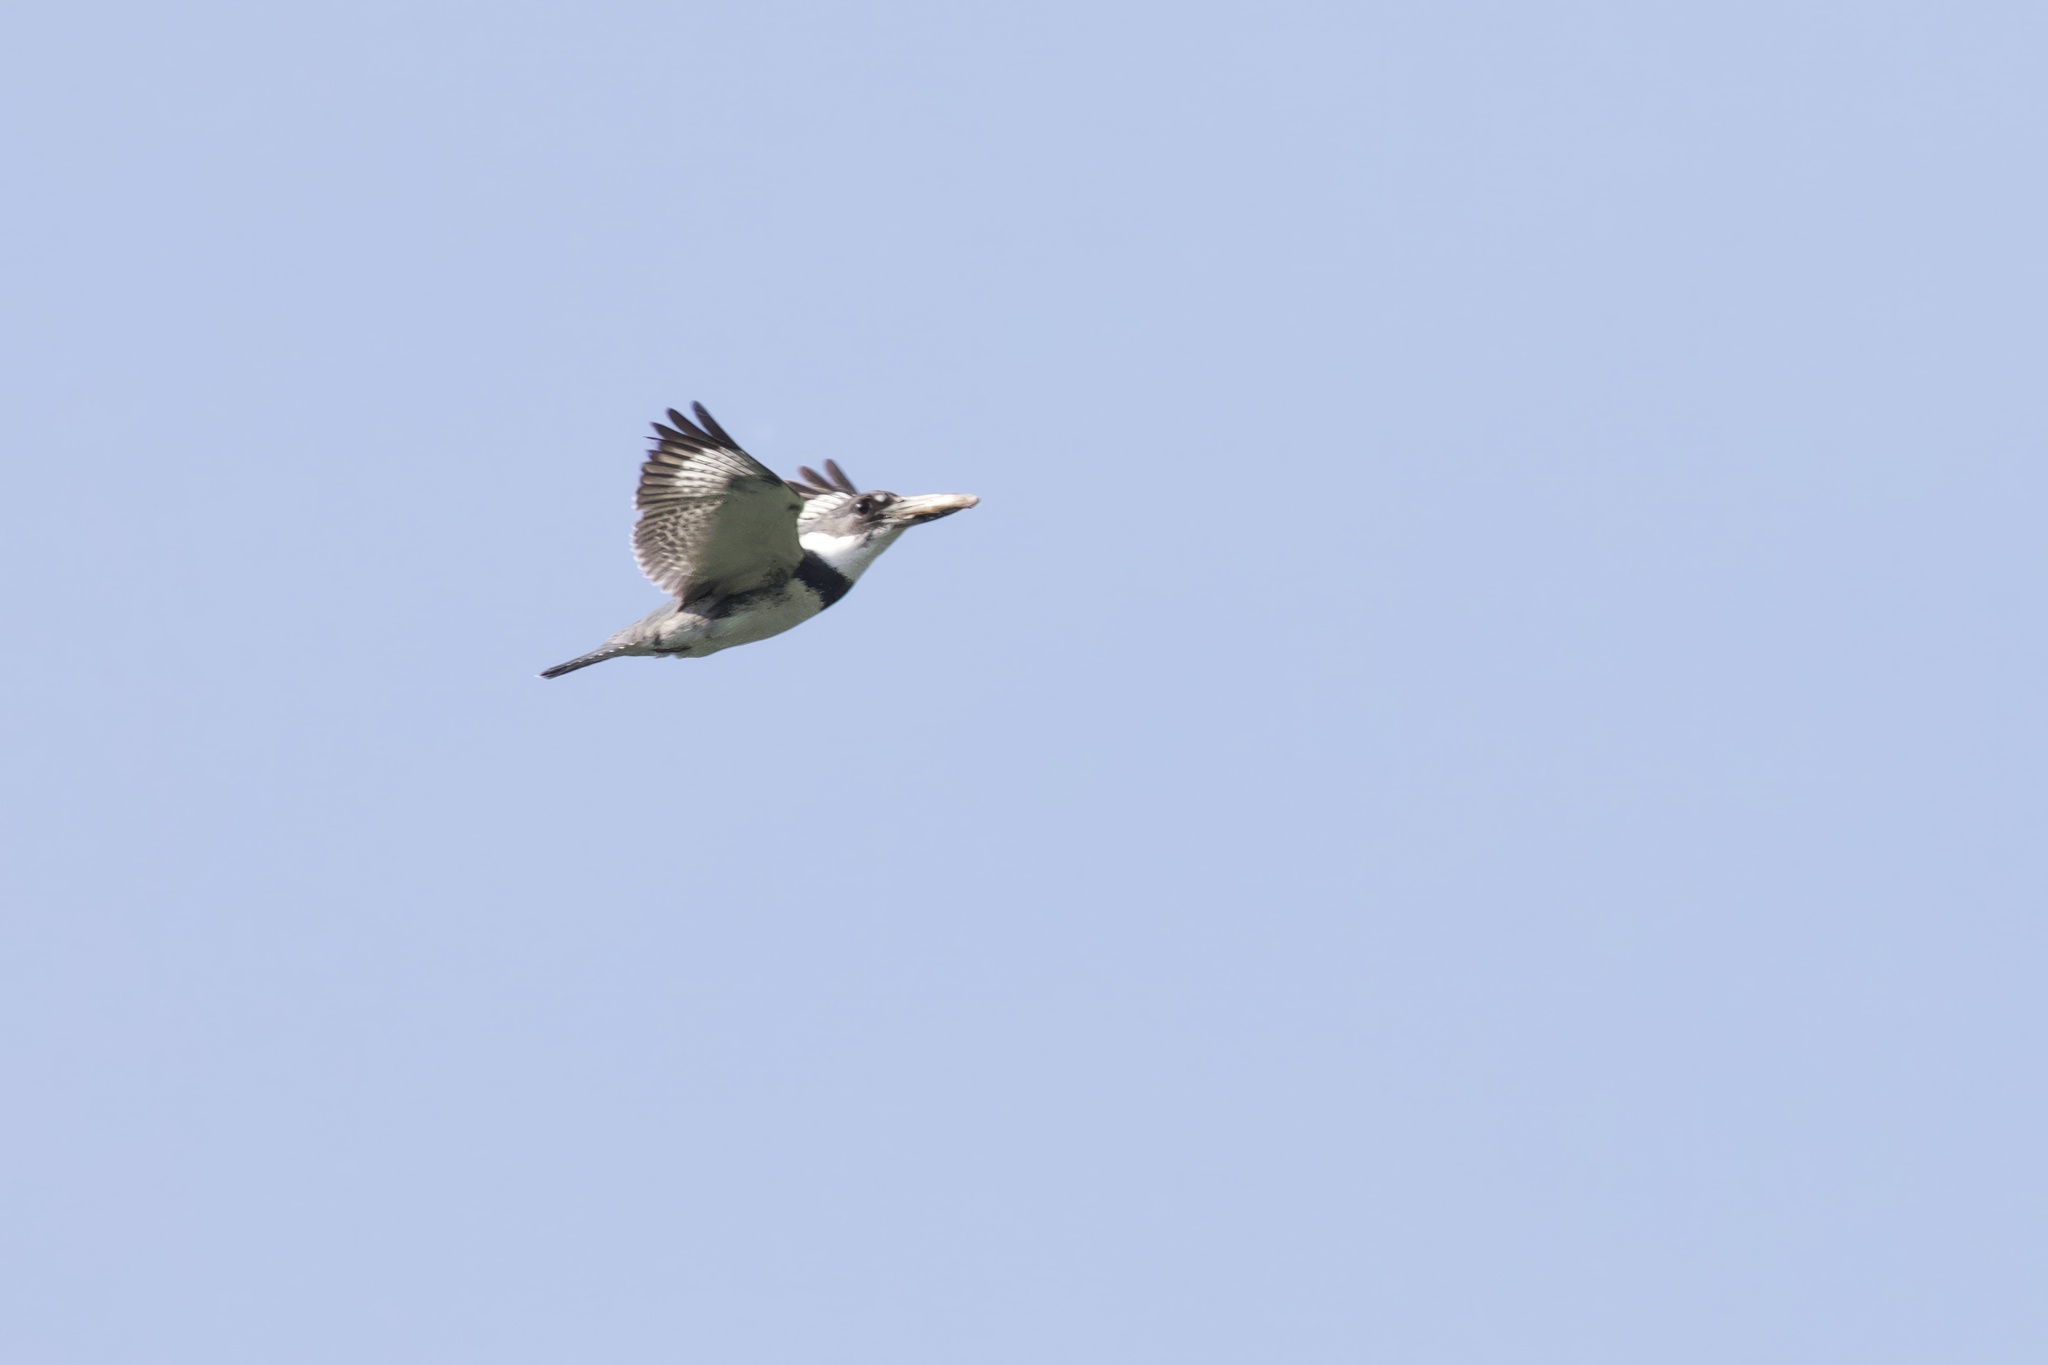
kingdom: Animalia
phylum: Chordata
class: Aves
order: Coraciiformes
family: Alcedinidae
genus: Megaceryle
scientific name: Megaceryle alcyon
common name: Belted kingfisher
